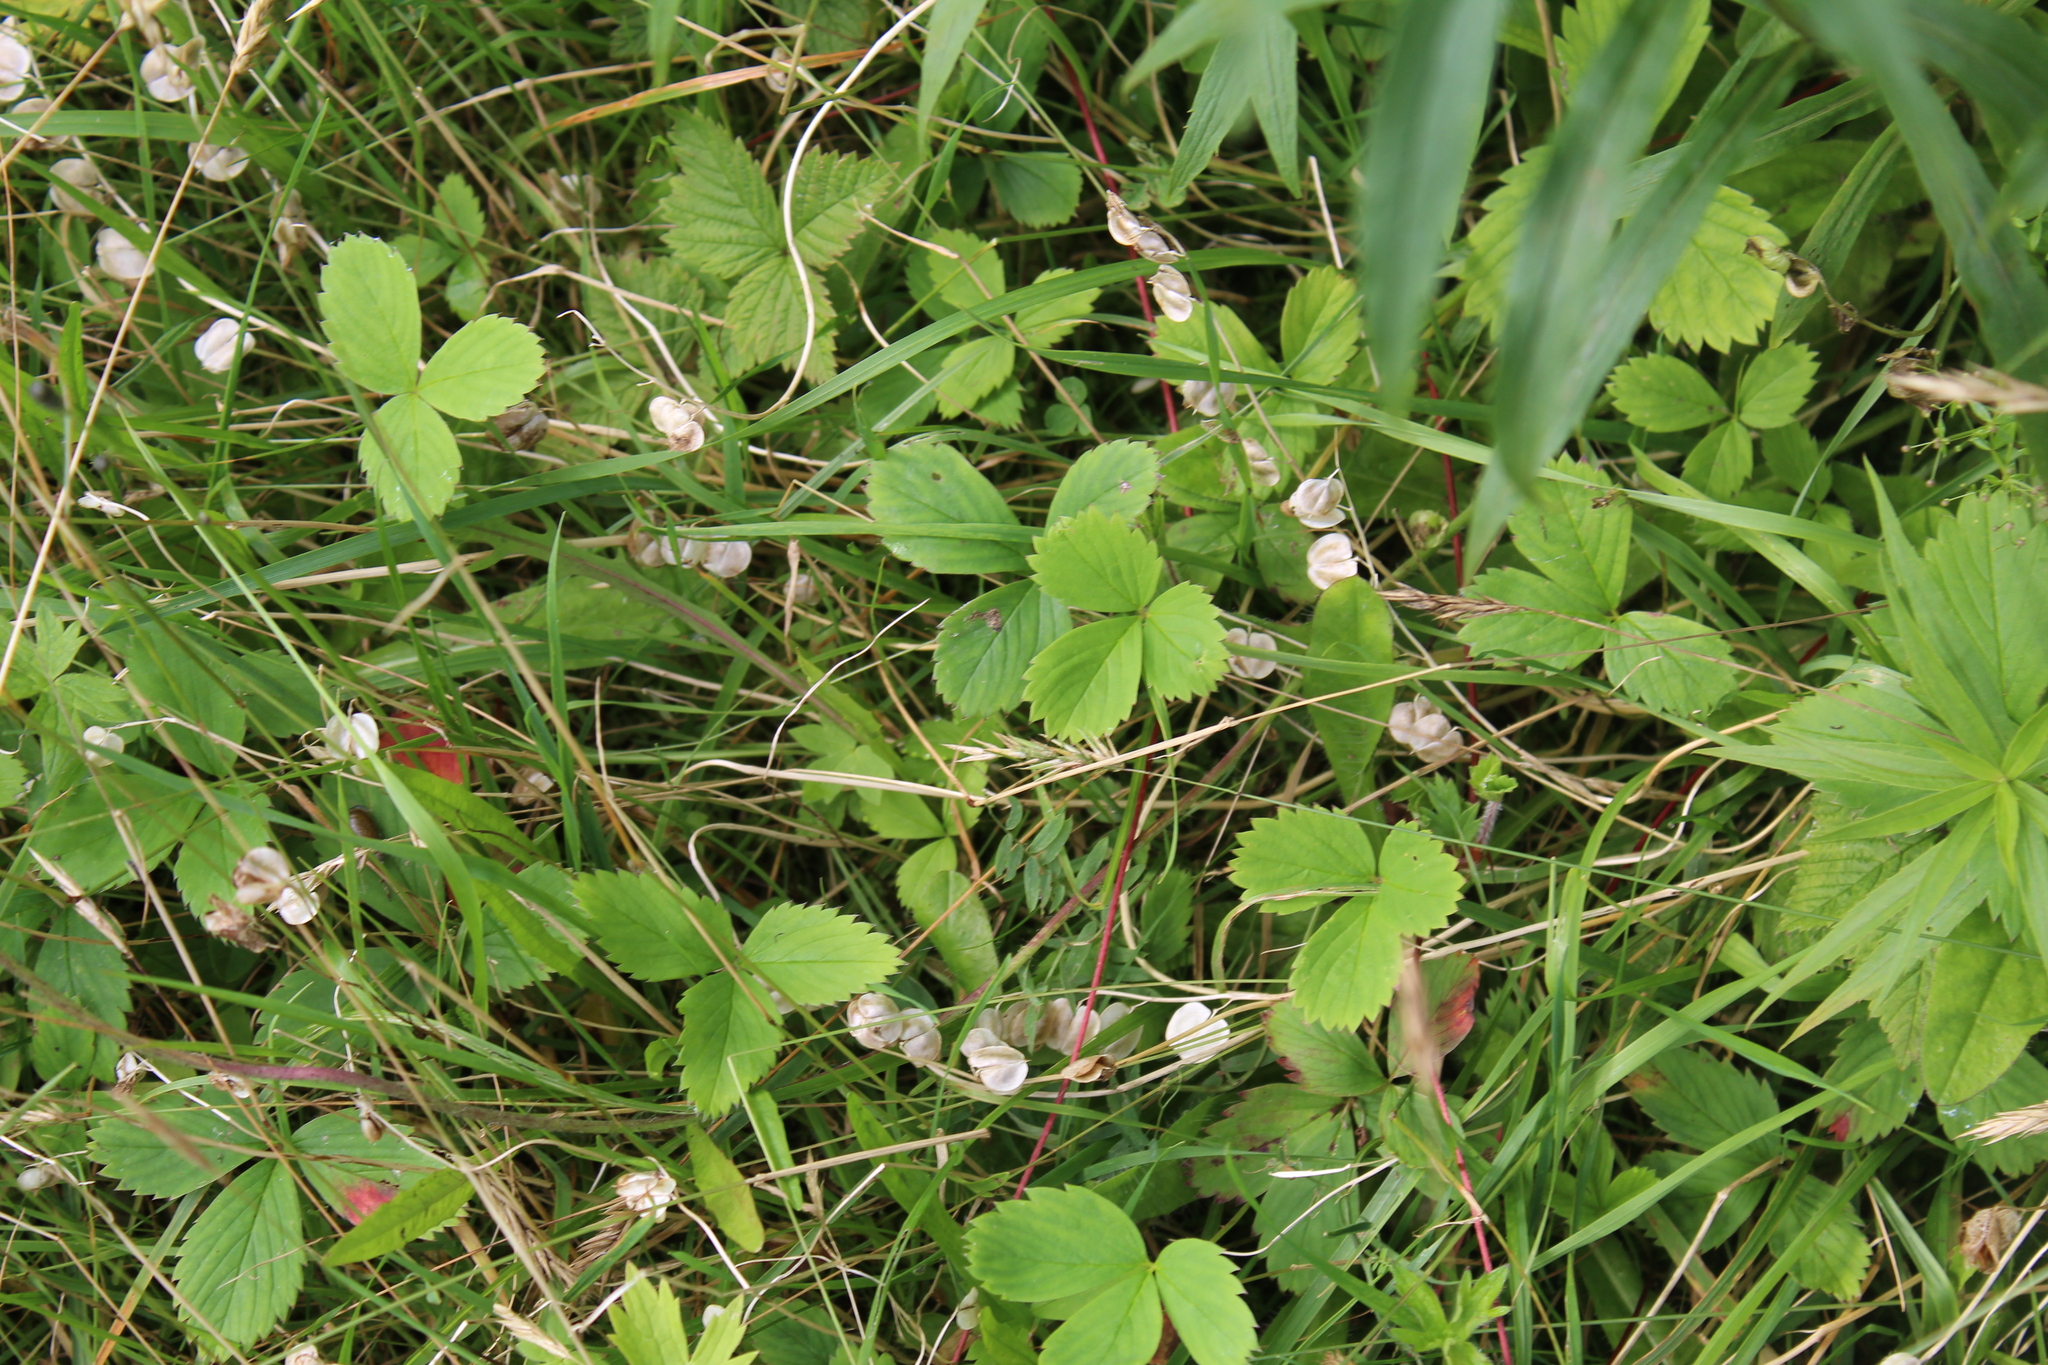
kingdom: Plantae
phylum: Tracheophyta
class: Magnoliopsida
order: Rosales
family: Rosaceae
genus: Fragaria
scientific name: Fragaria virginiana
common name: Thickleaved wild strawberry
